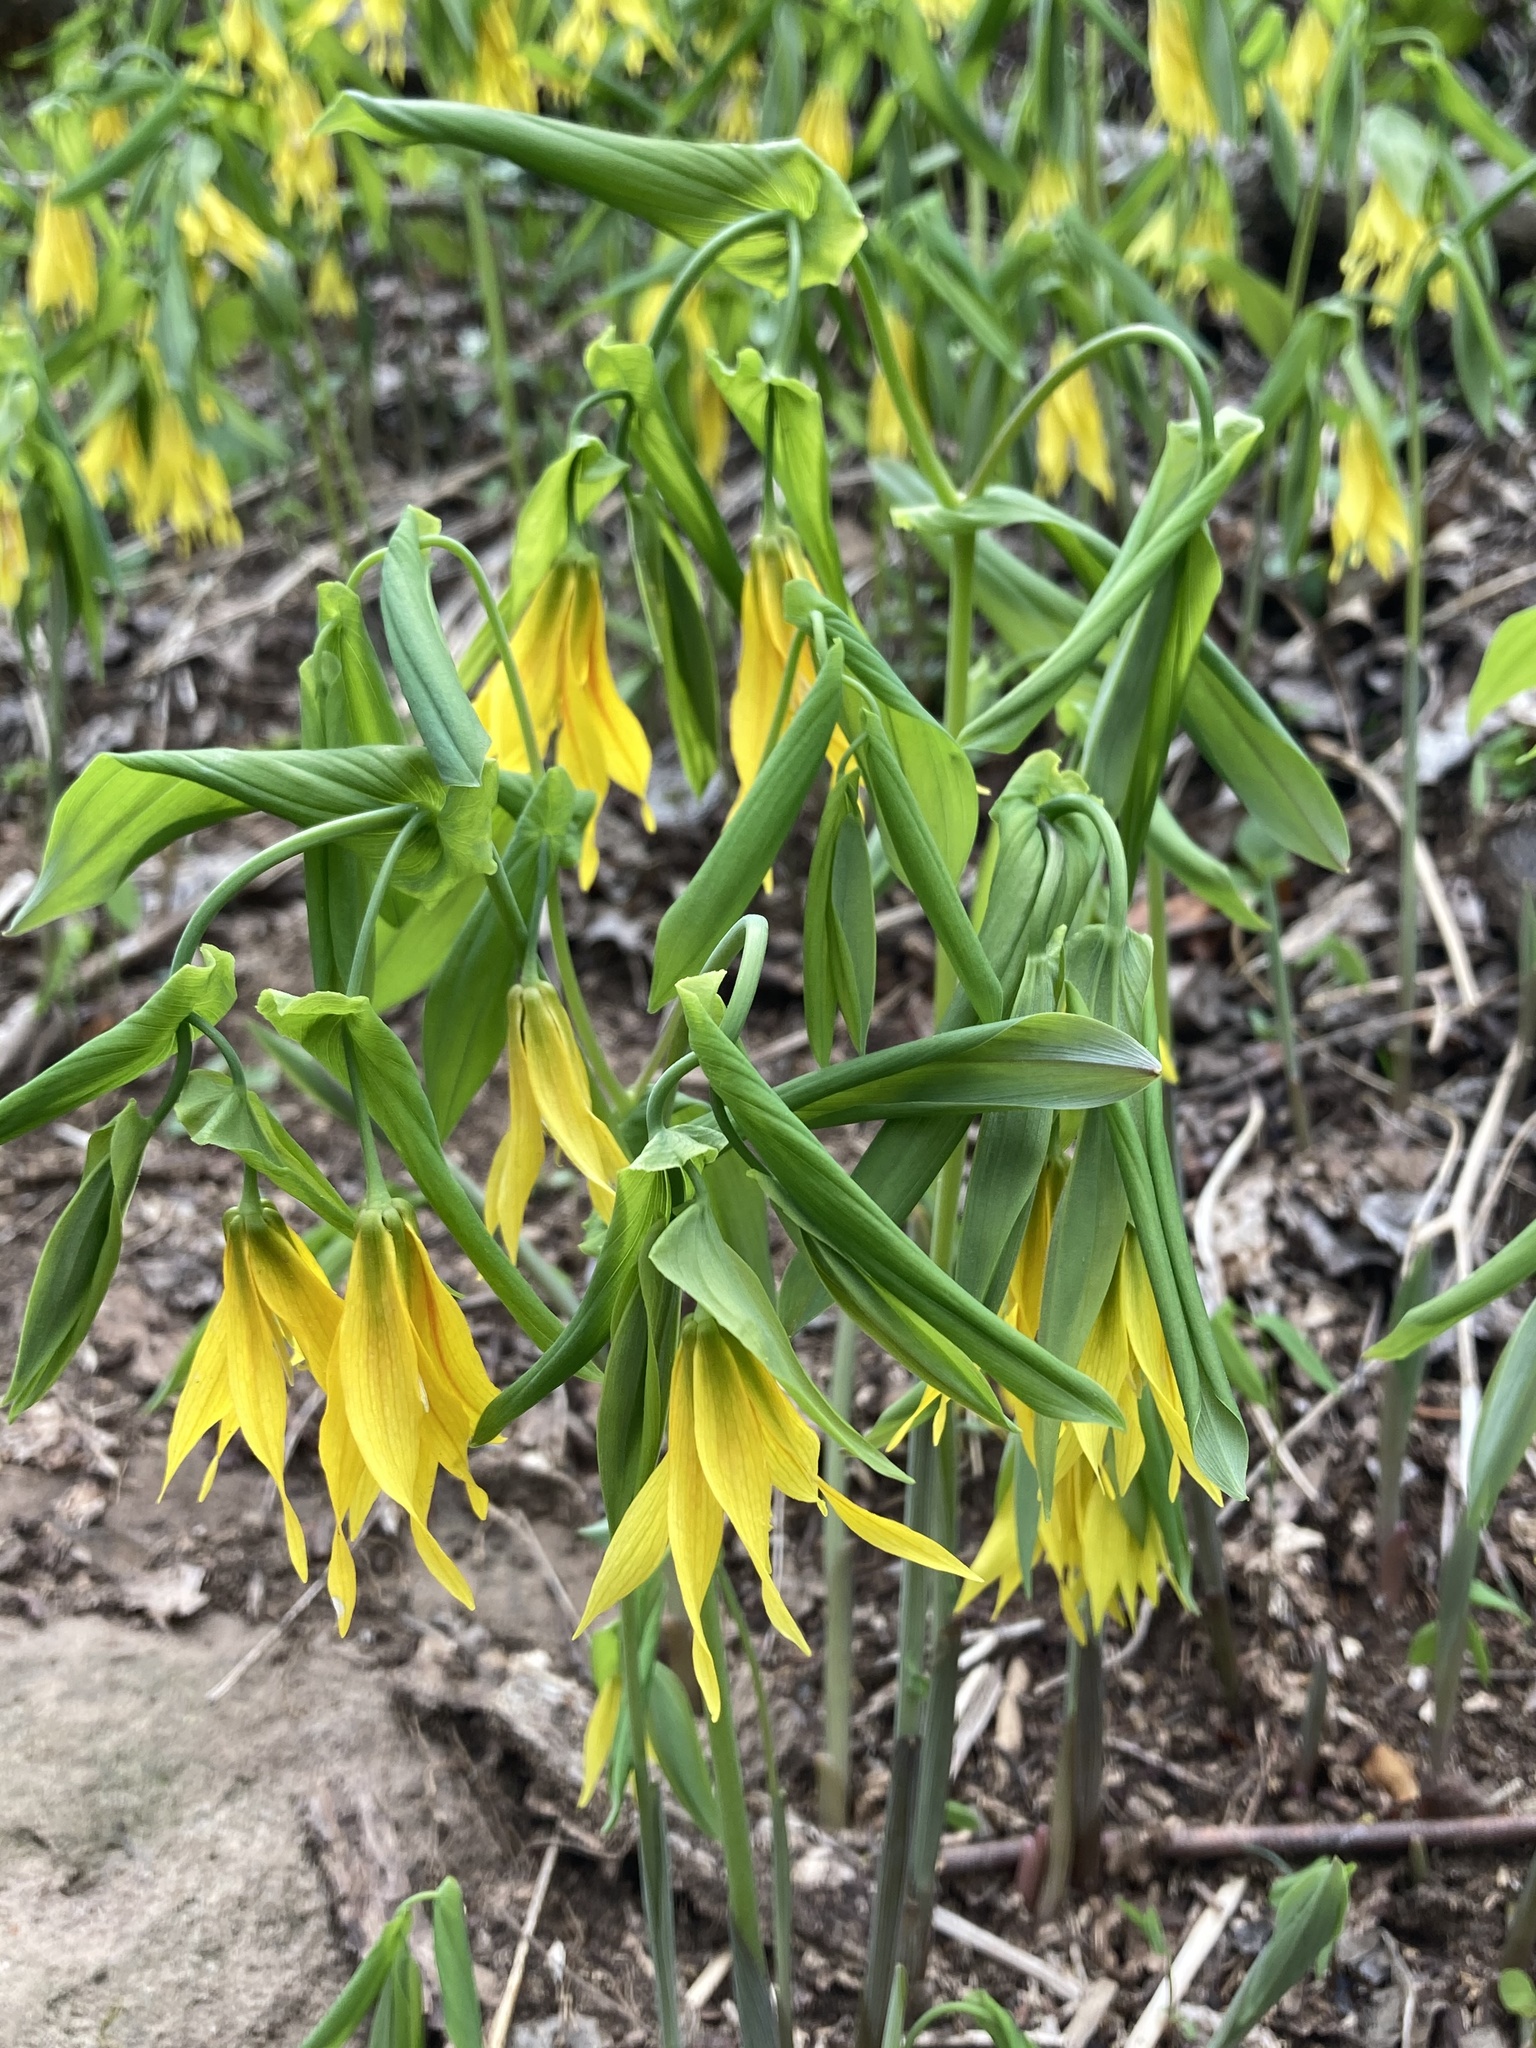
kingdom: Plantae
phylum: Tracheophyta
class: Liliopsida
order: Liliales
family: Colchicaceae
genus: Uvularia
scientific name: Uvularia grandiflora
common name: Bellwort
